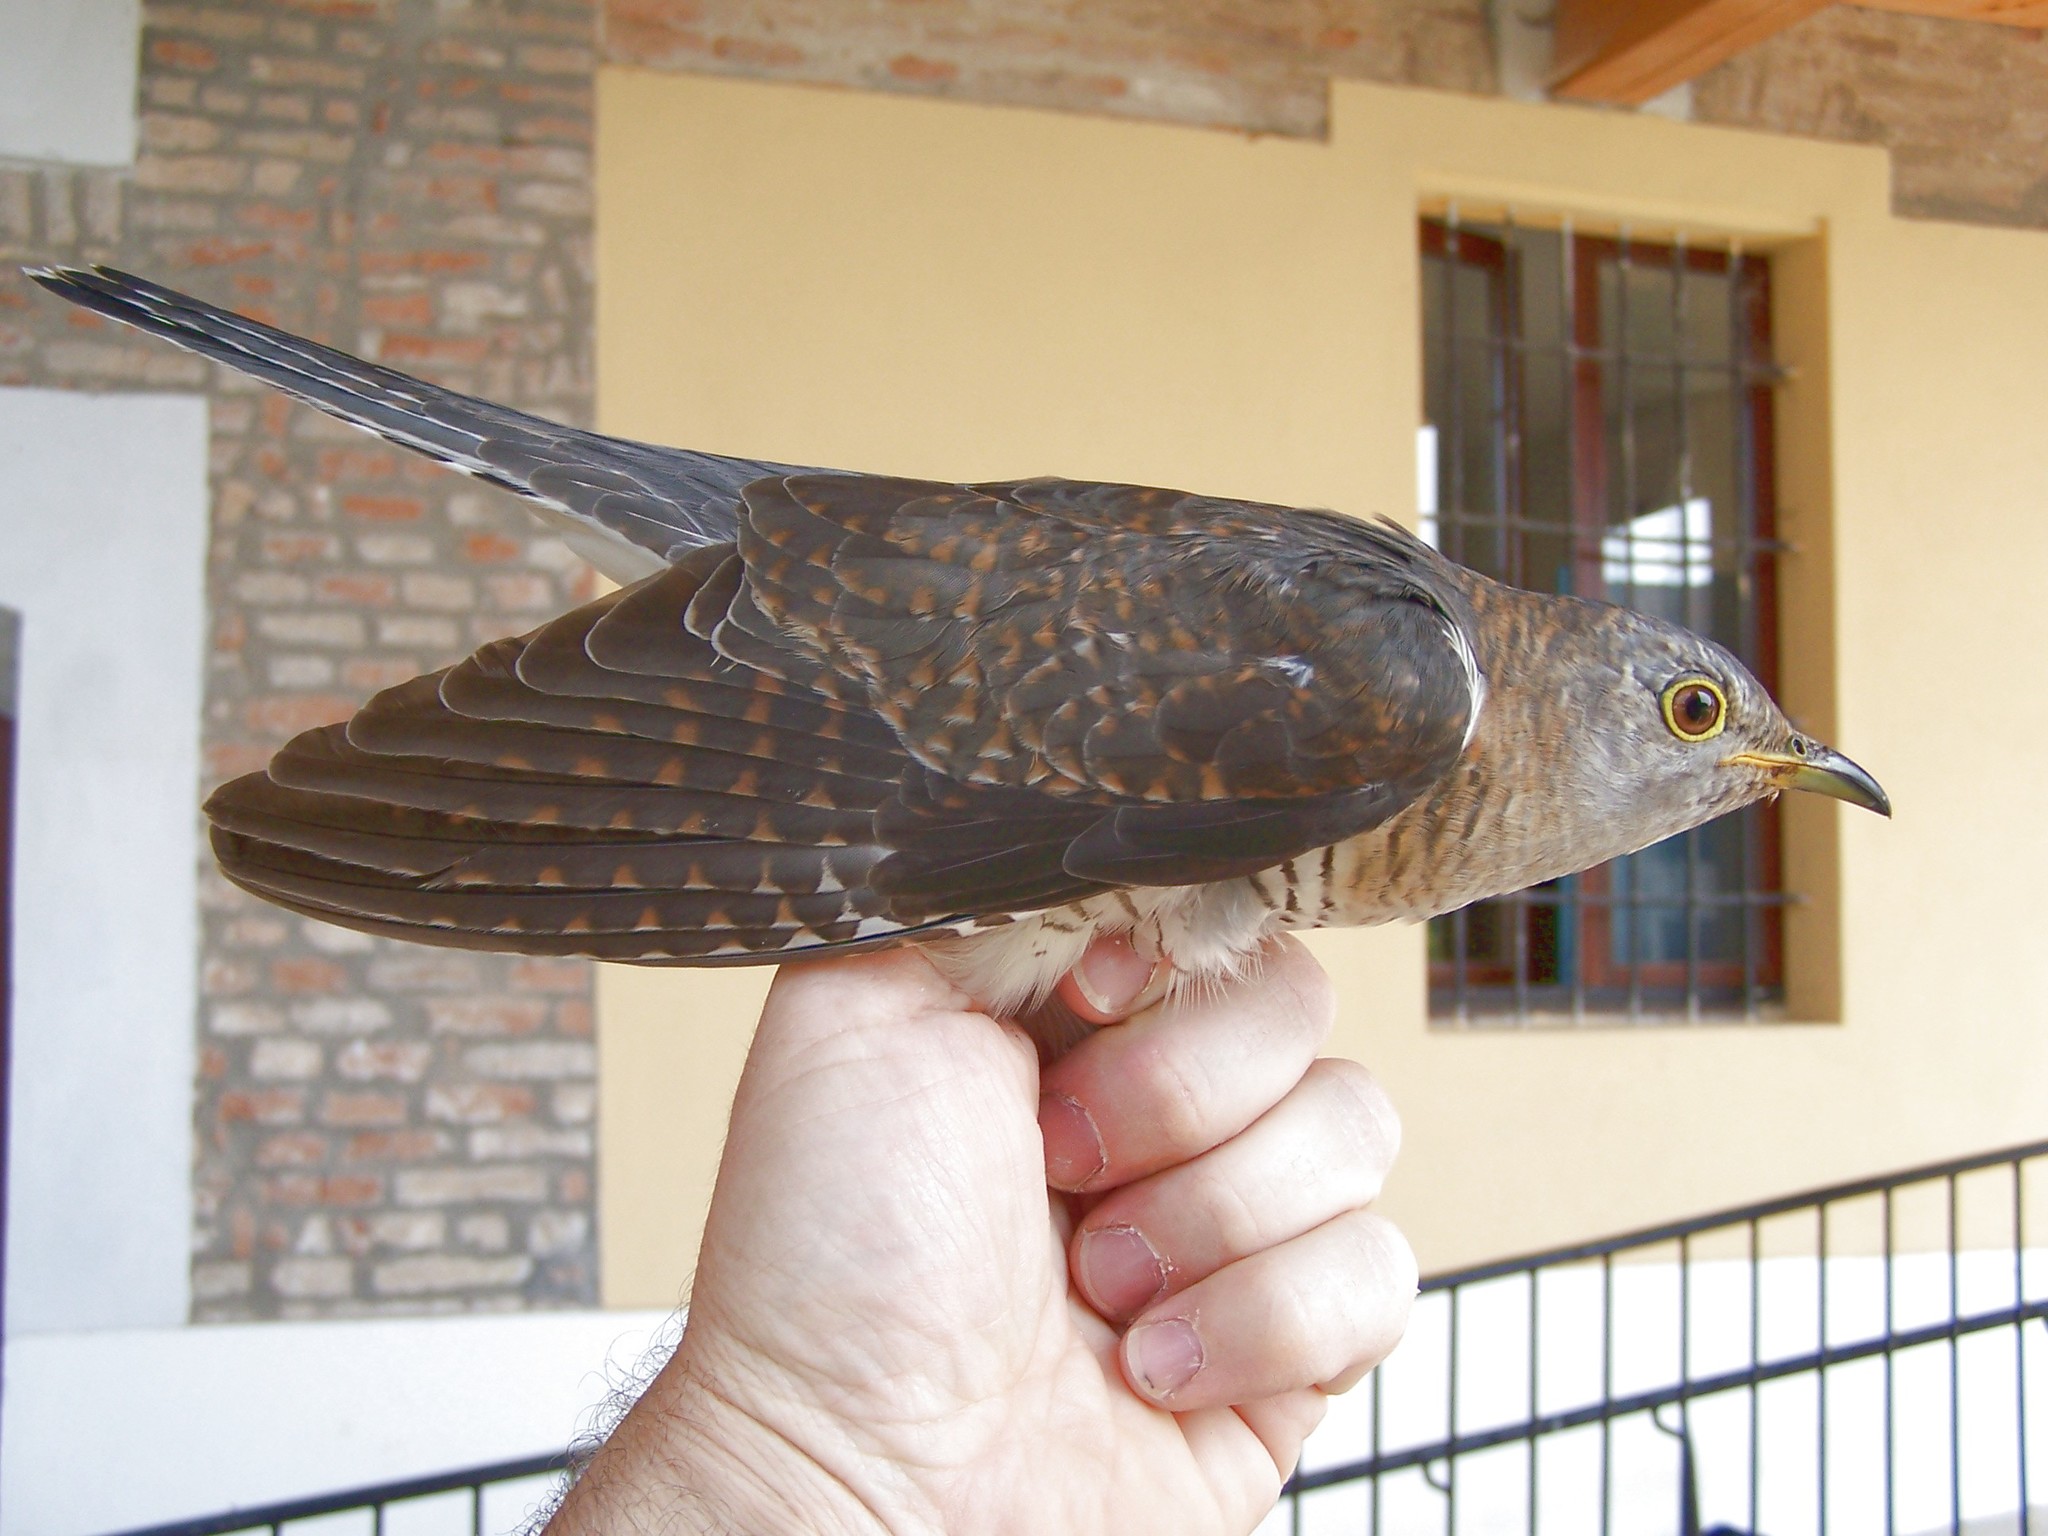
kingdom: Animalia
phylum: Chordata
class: Aves
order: Cuculiformes
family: Cuculidae
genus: Cuculus
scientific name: Cuculus canorus
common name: Common cuckoo
